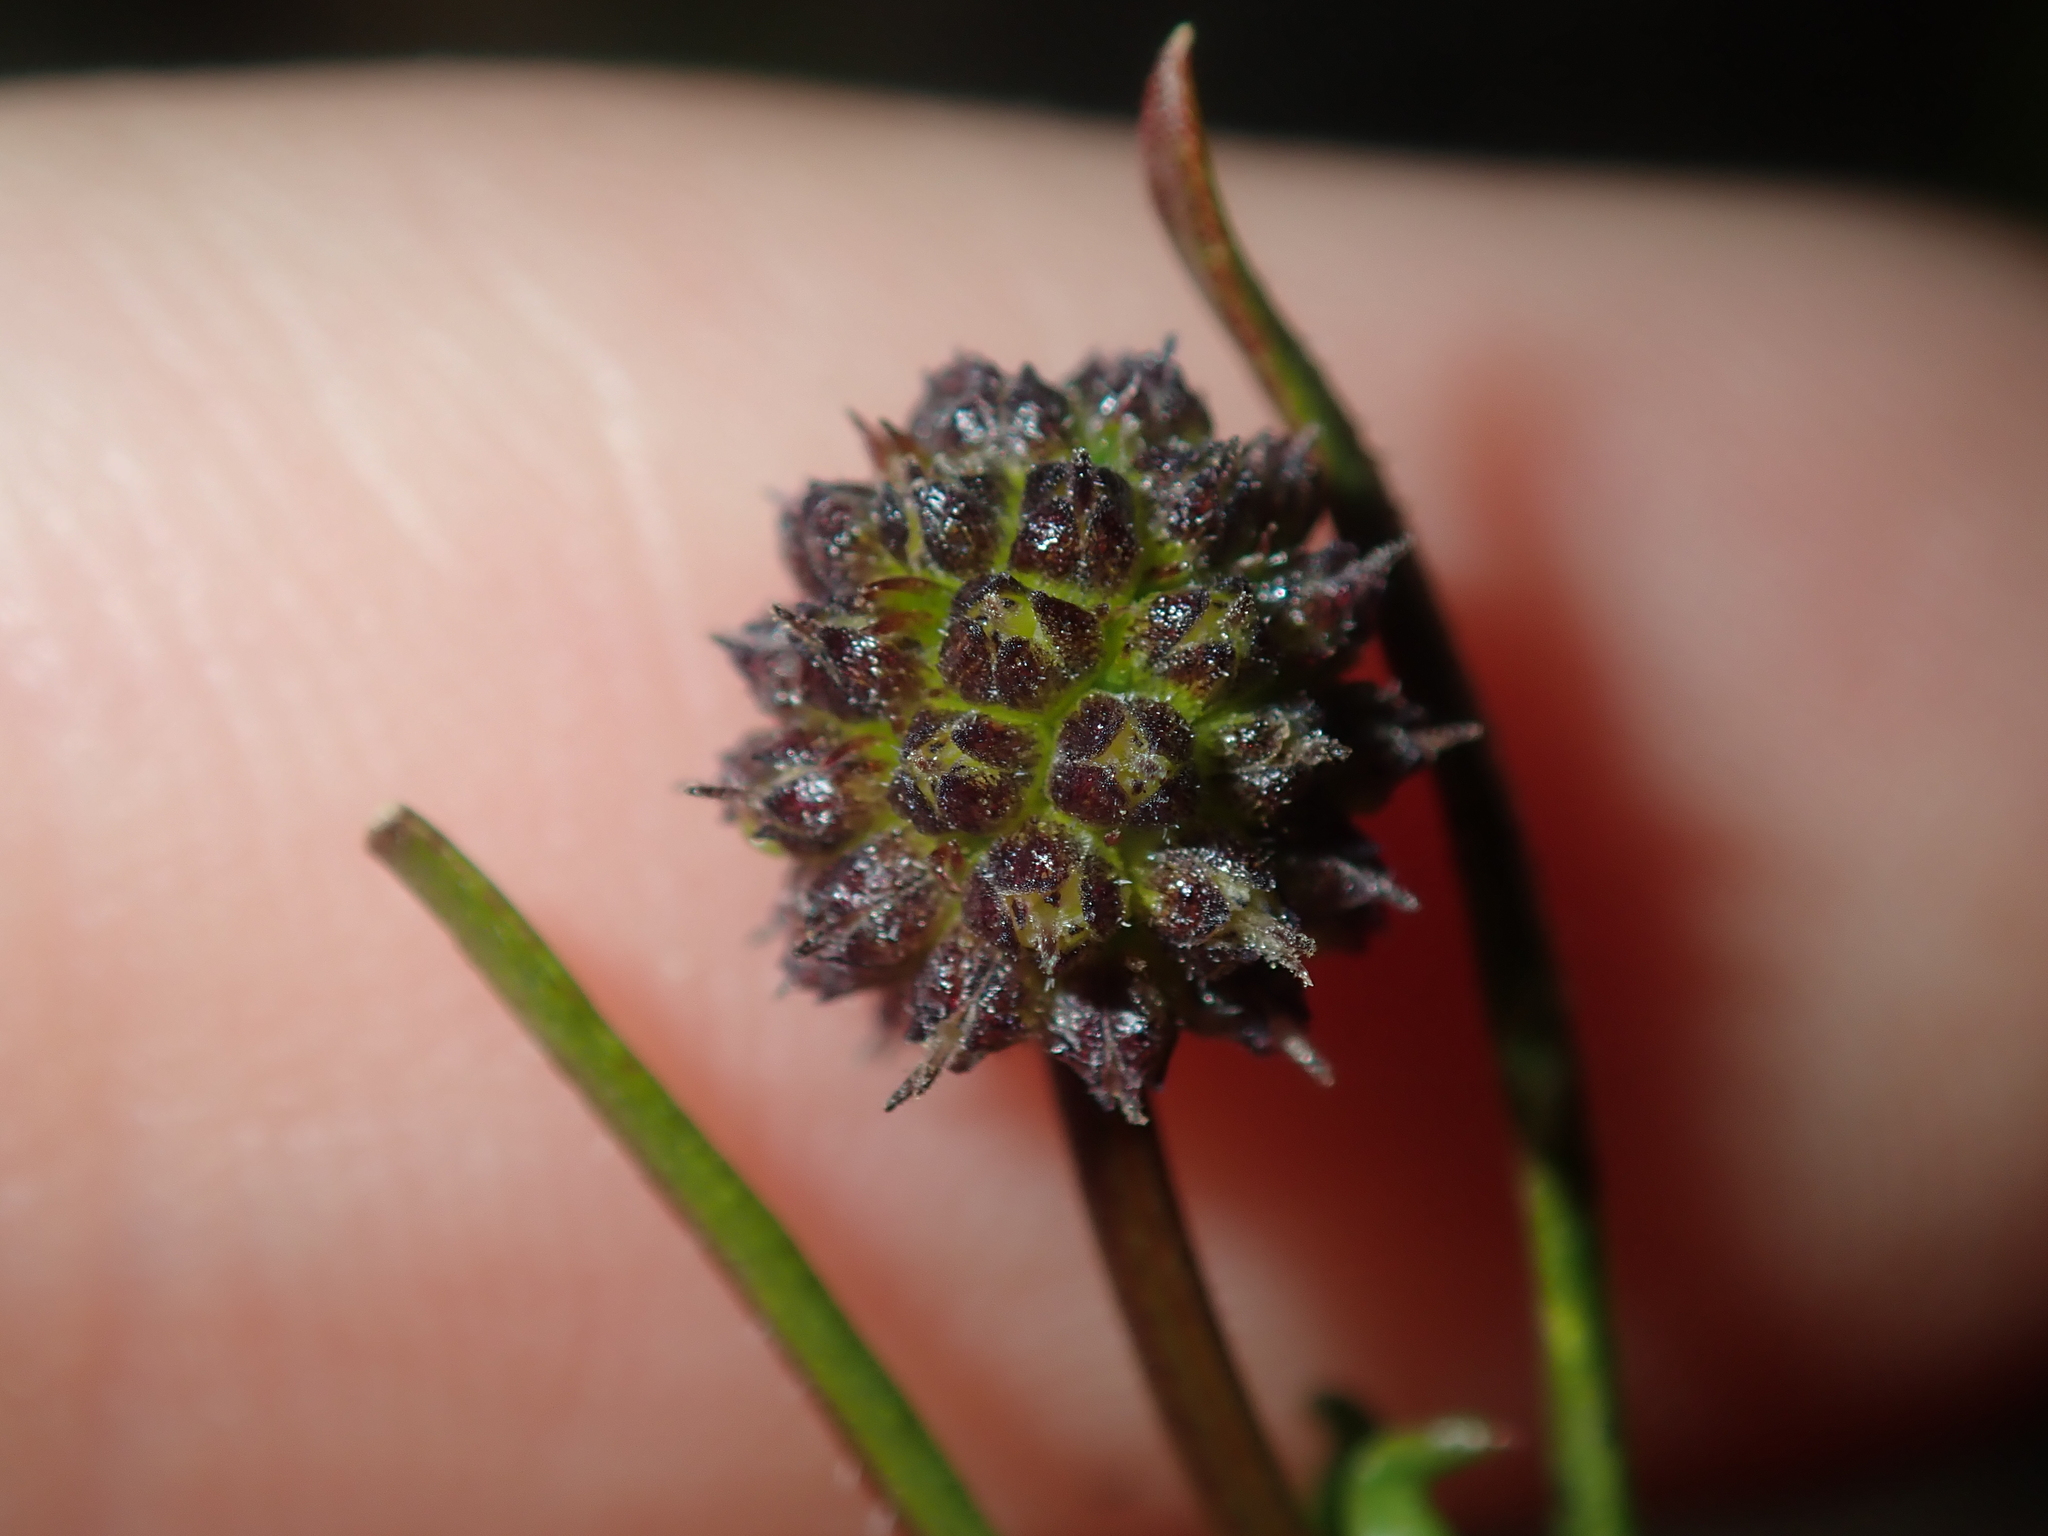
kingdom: Plantae
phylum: Tracheophyta
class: Magnoliopsida
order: Gentianales
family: Rubiaceae
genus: Opercularia
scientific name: Opercularia vaginata
